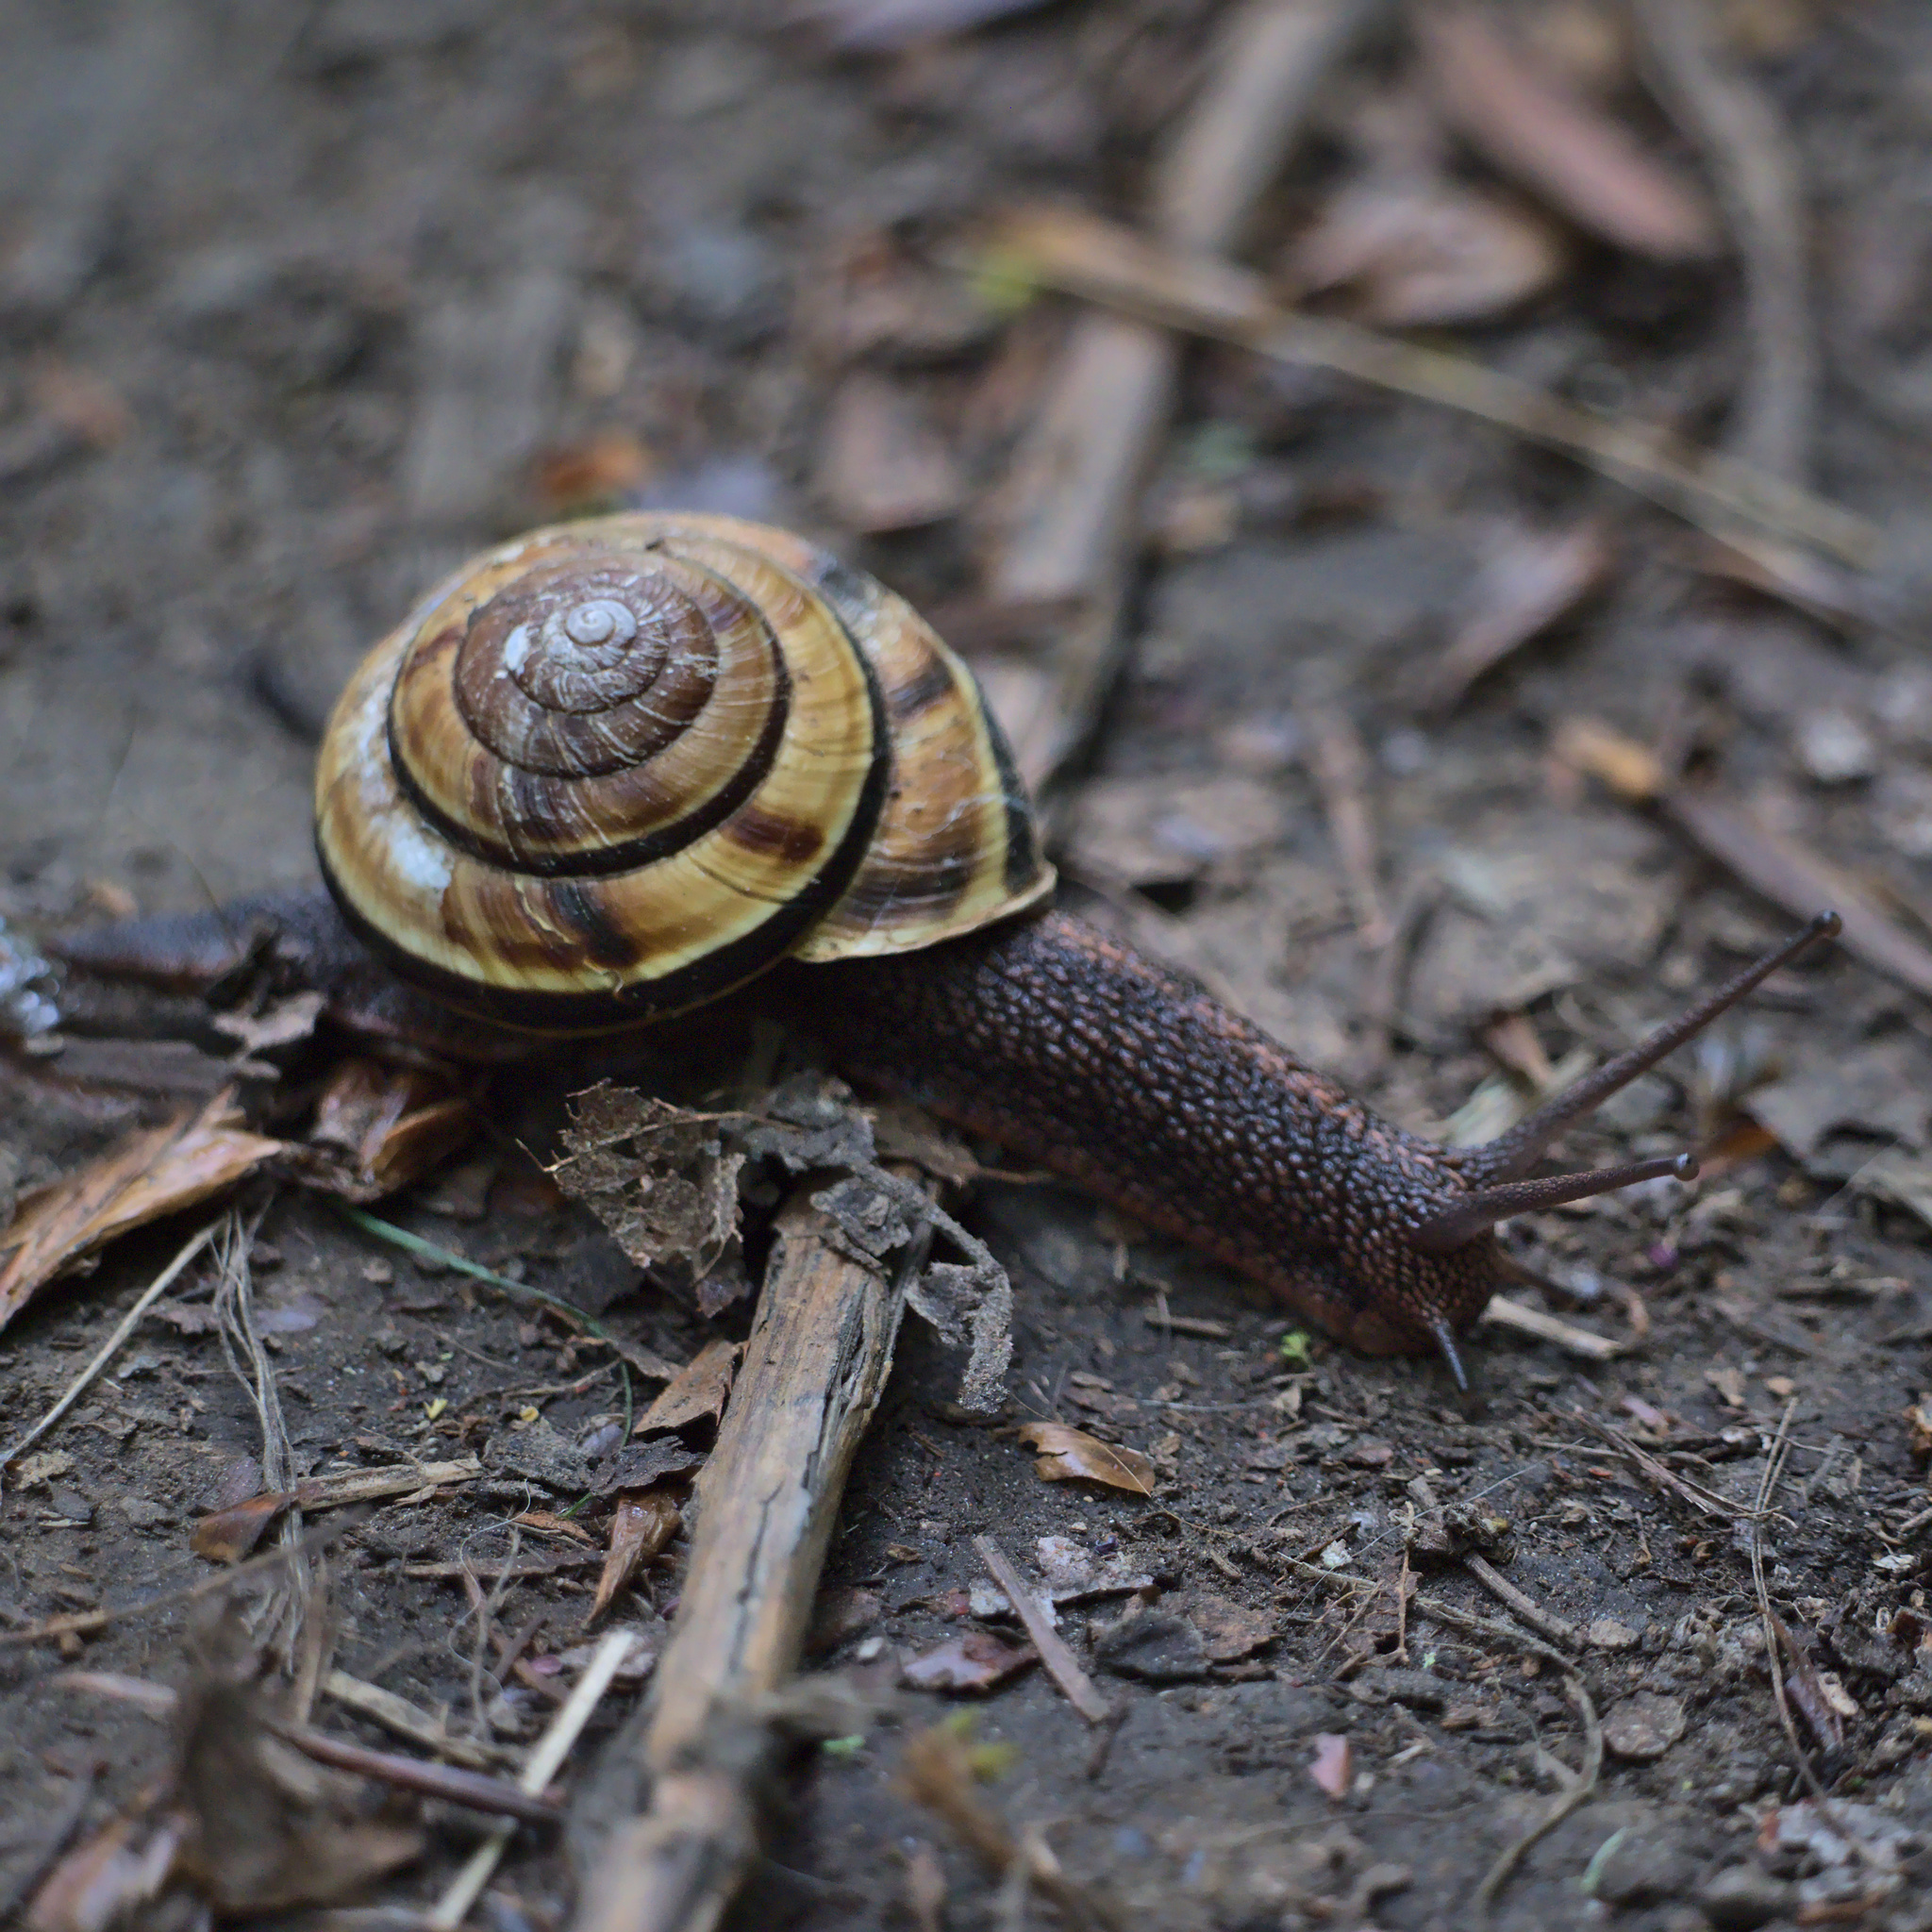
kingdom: Animalia
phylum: Mollusca
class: Gastropoda
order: Stylommatophora
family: Xanthonychidae
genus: Monadenia
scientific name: Monadenia fidelis
